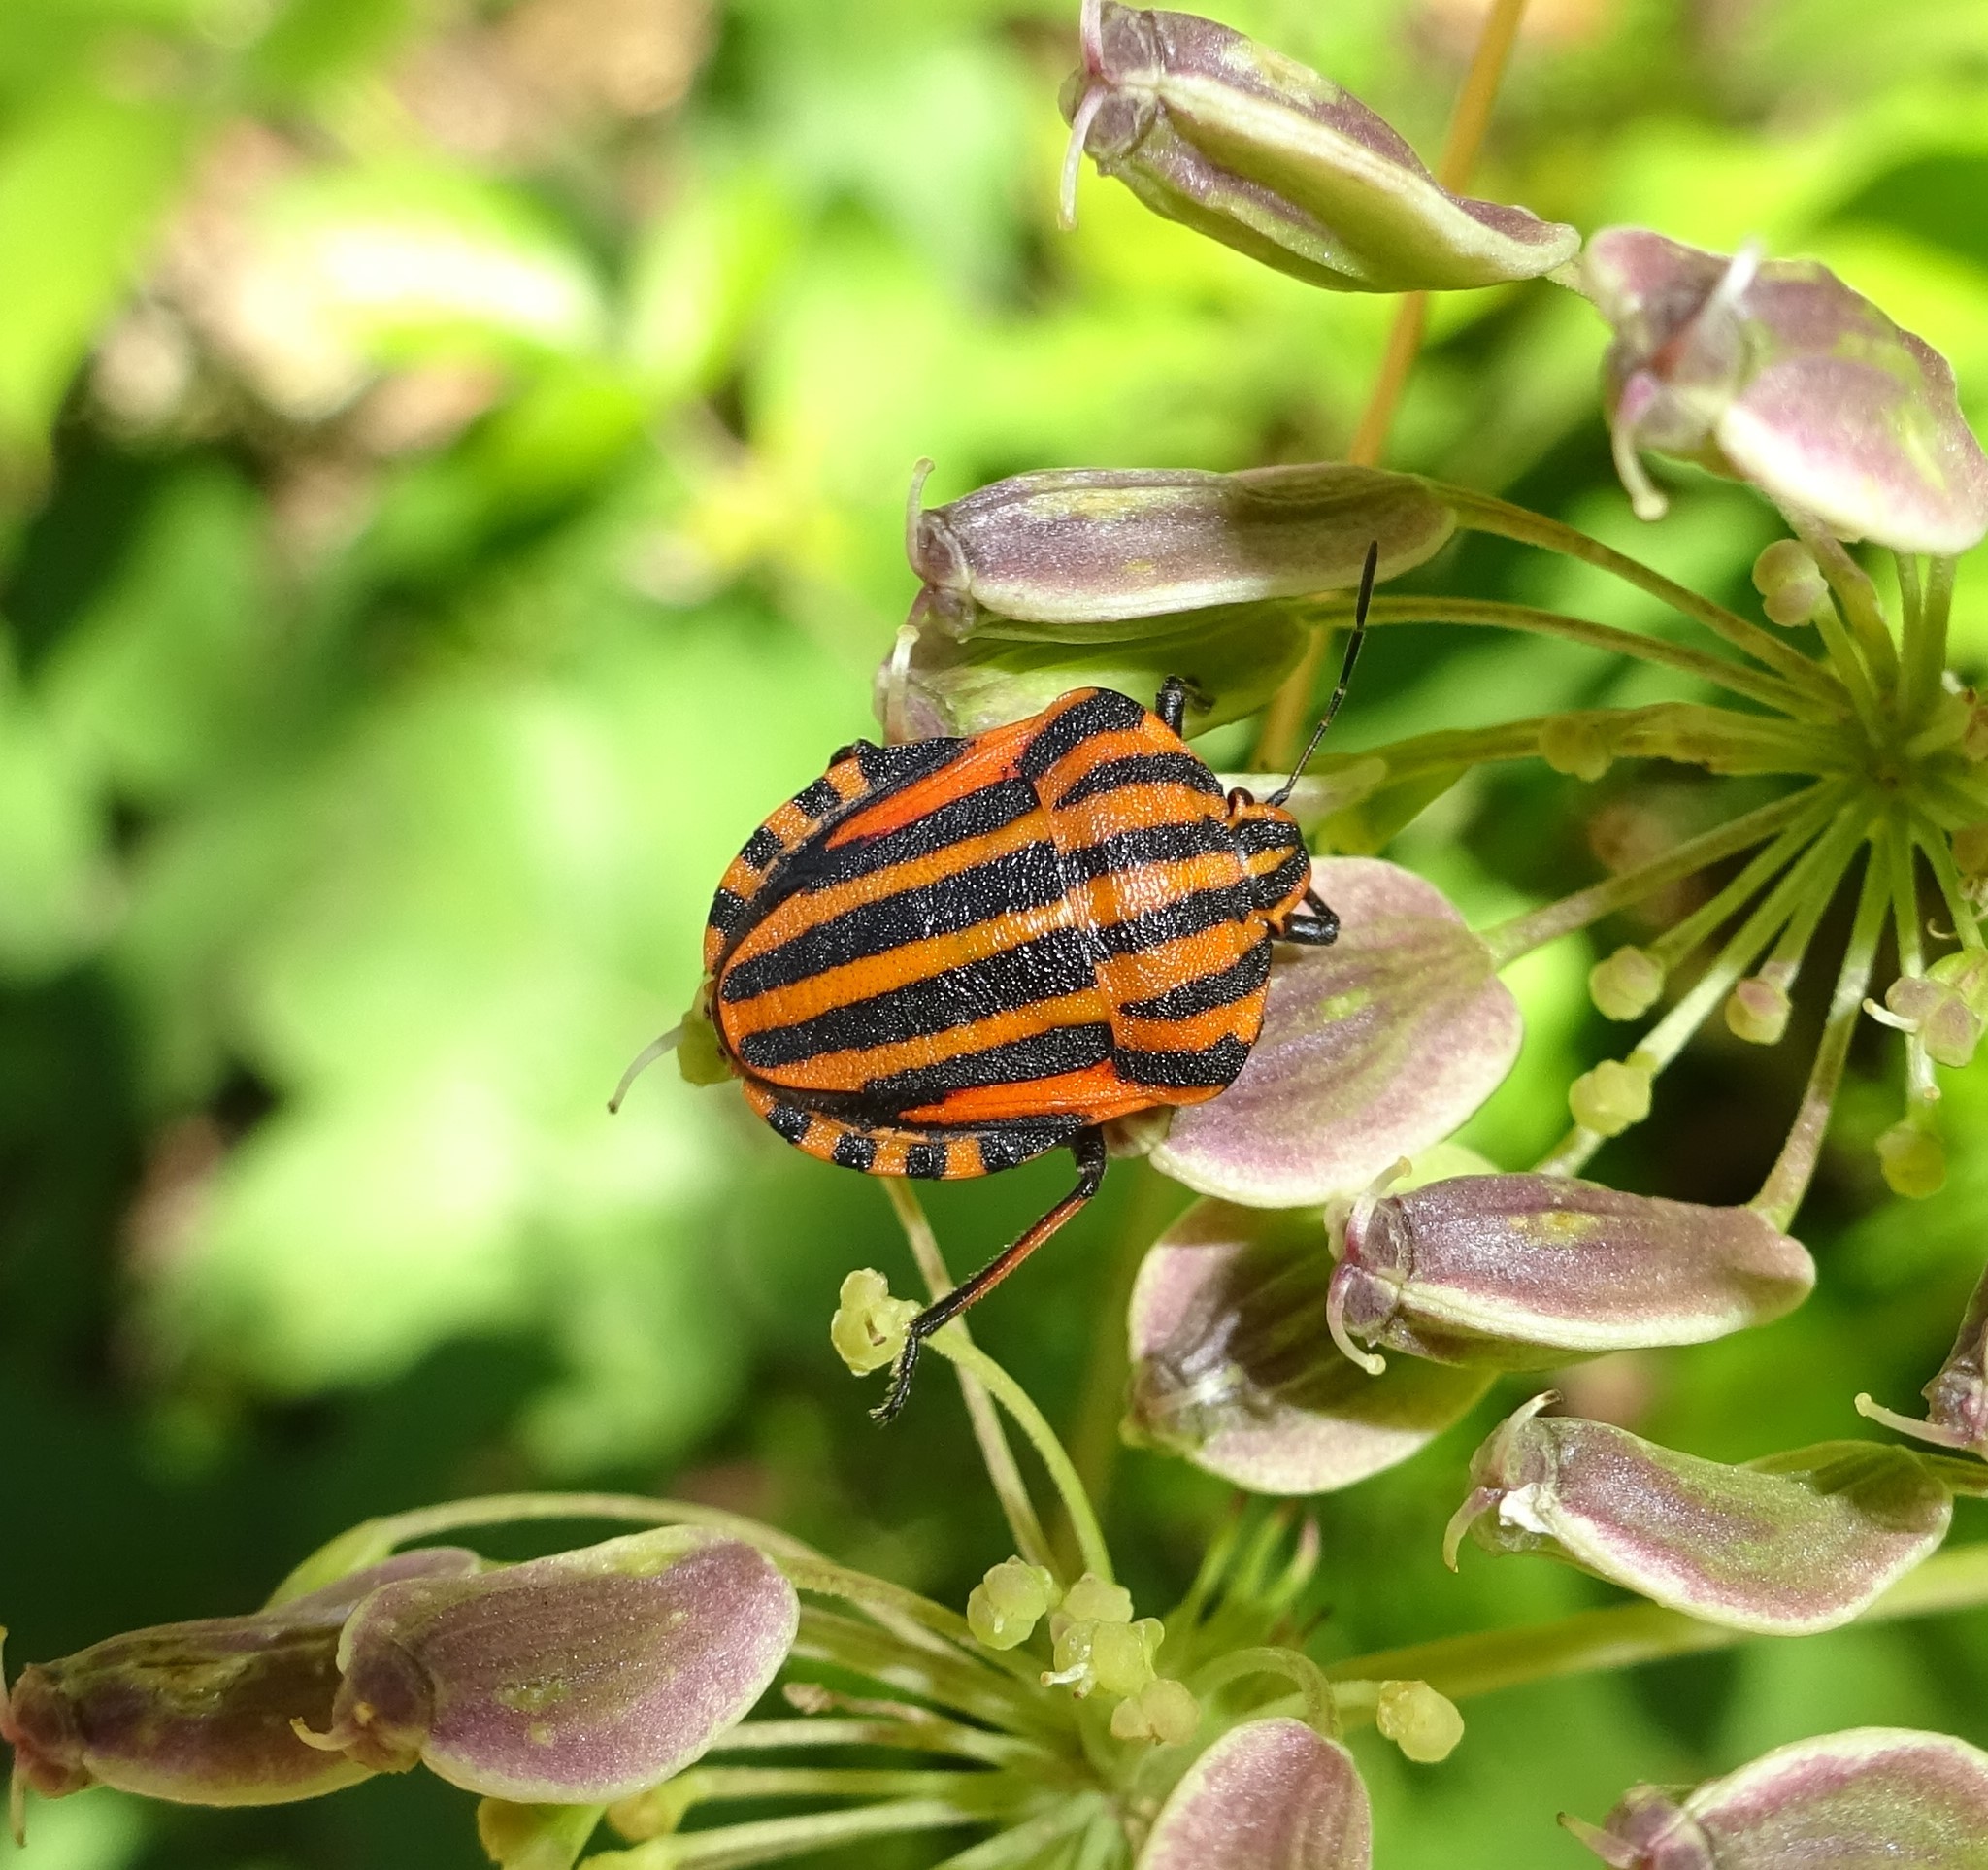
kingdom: Animalia
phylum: Arthropoda
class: Insecta
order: Hemiptera
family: Pentatomidae
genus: Graphosoma
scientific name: Graphosoma italicum
